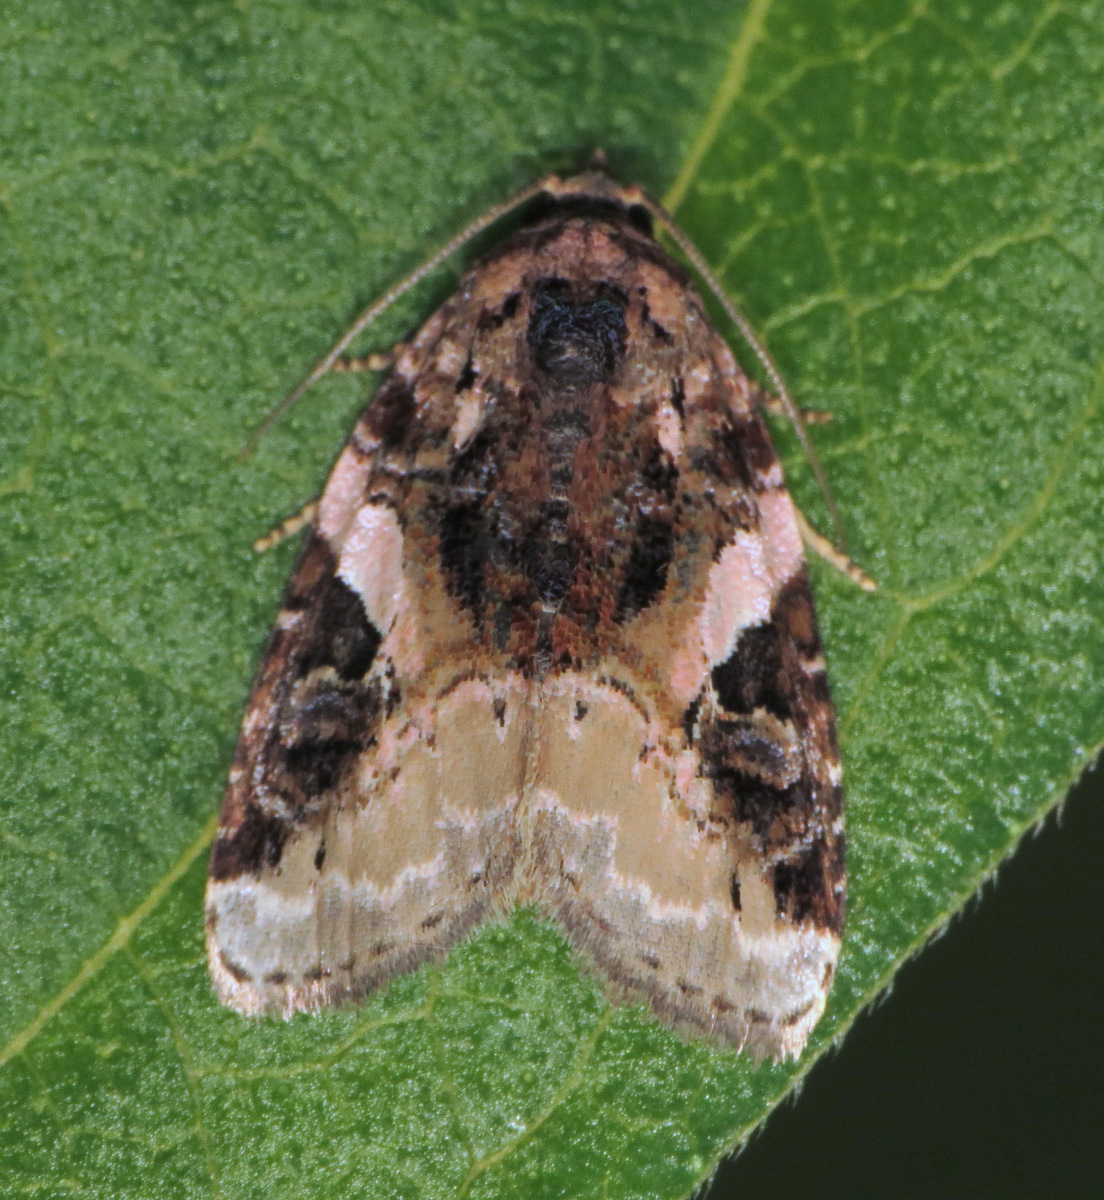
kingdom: Animalia
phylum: Arthropoda
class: Insecta
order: Lepidoptera
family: Noctuidae
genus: Pseudeustrotia
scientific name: Pseudeustrotia carneola
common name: Pink-barred lithacodia moth
